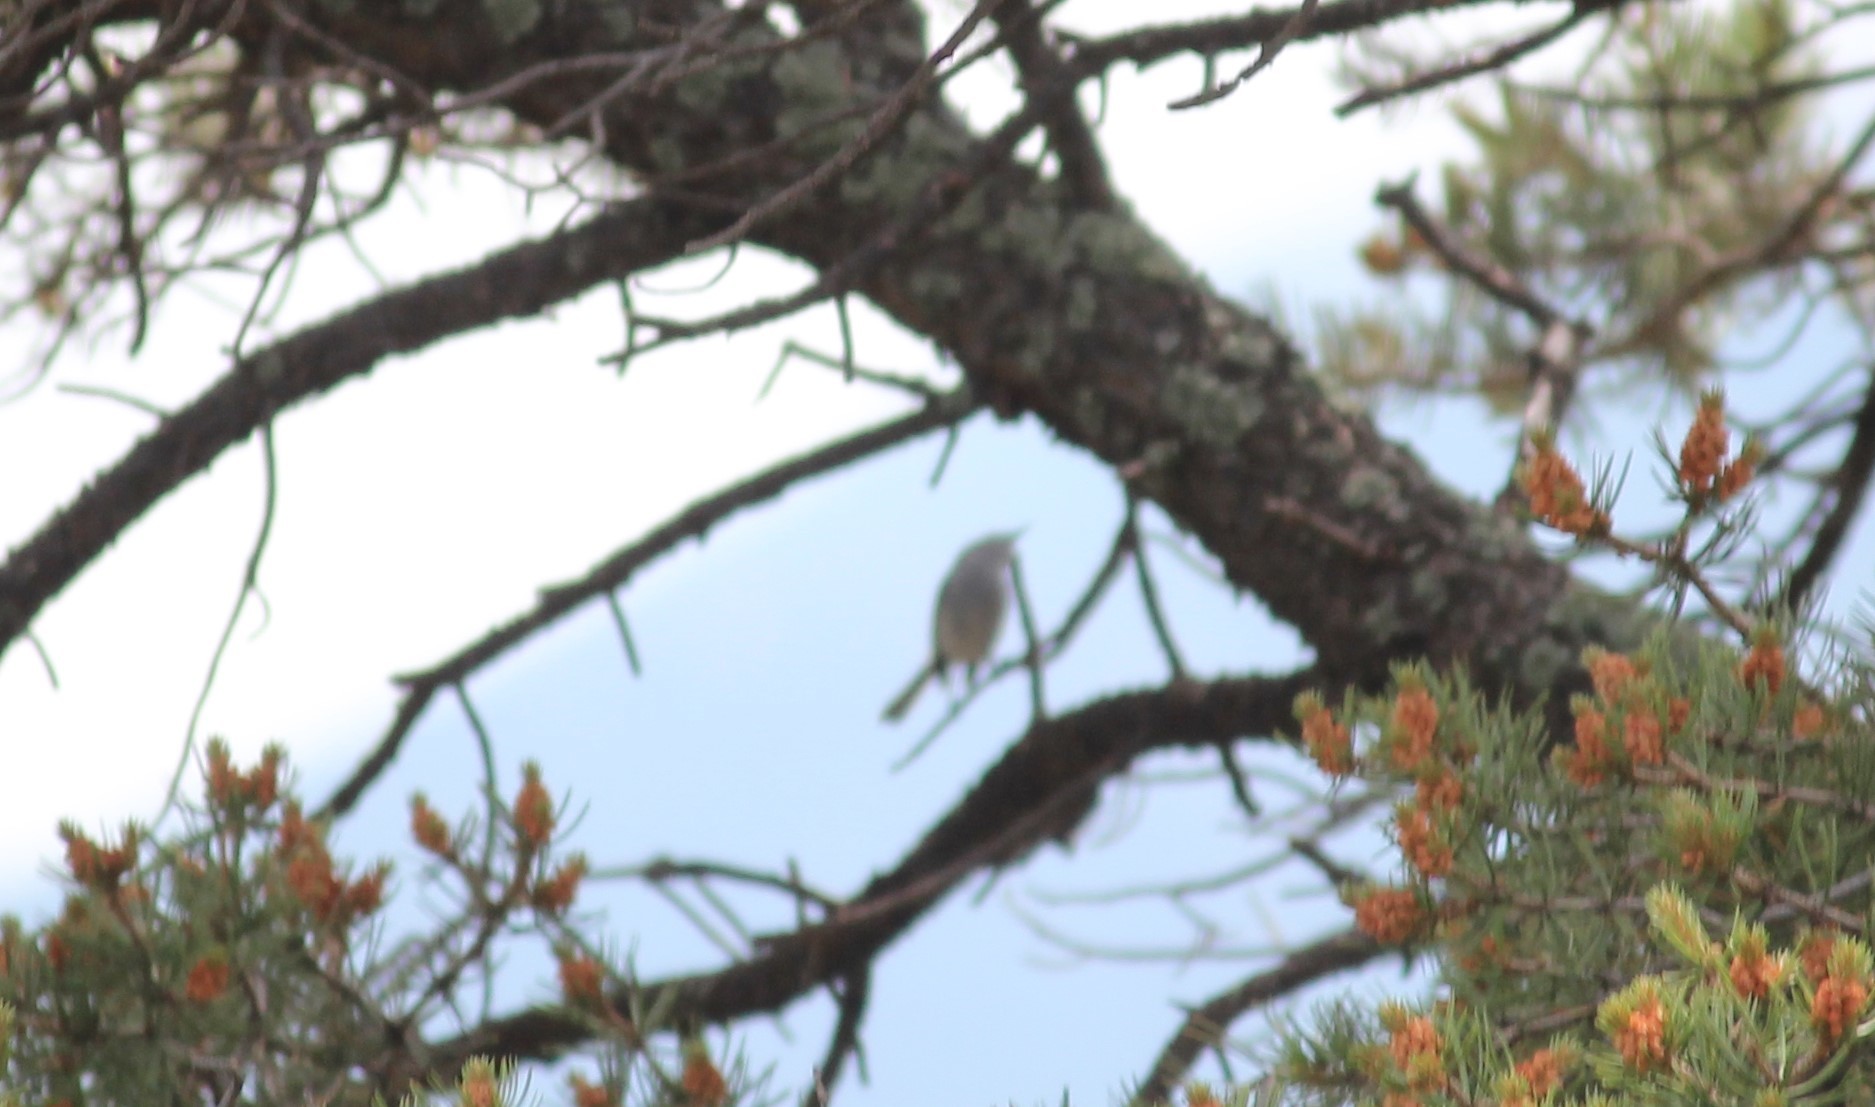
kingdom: Animalia
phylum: Chordata
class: Aves
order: Passeriformes
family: Polioptilidae
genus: Polioptila
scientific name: Polioptila caerulea
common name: Blue-gray gnatcatcher
